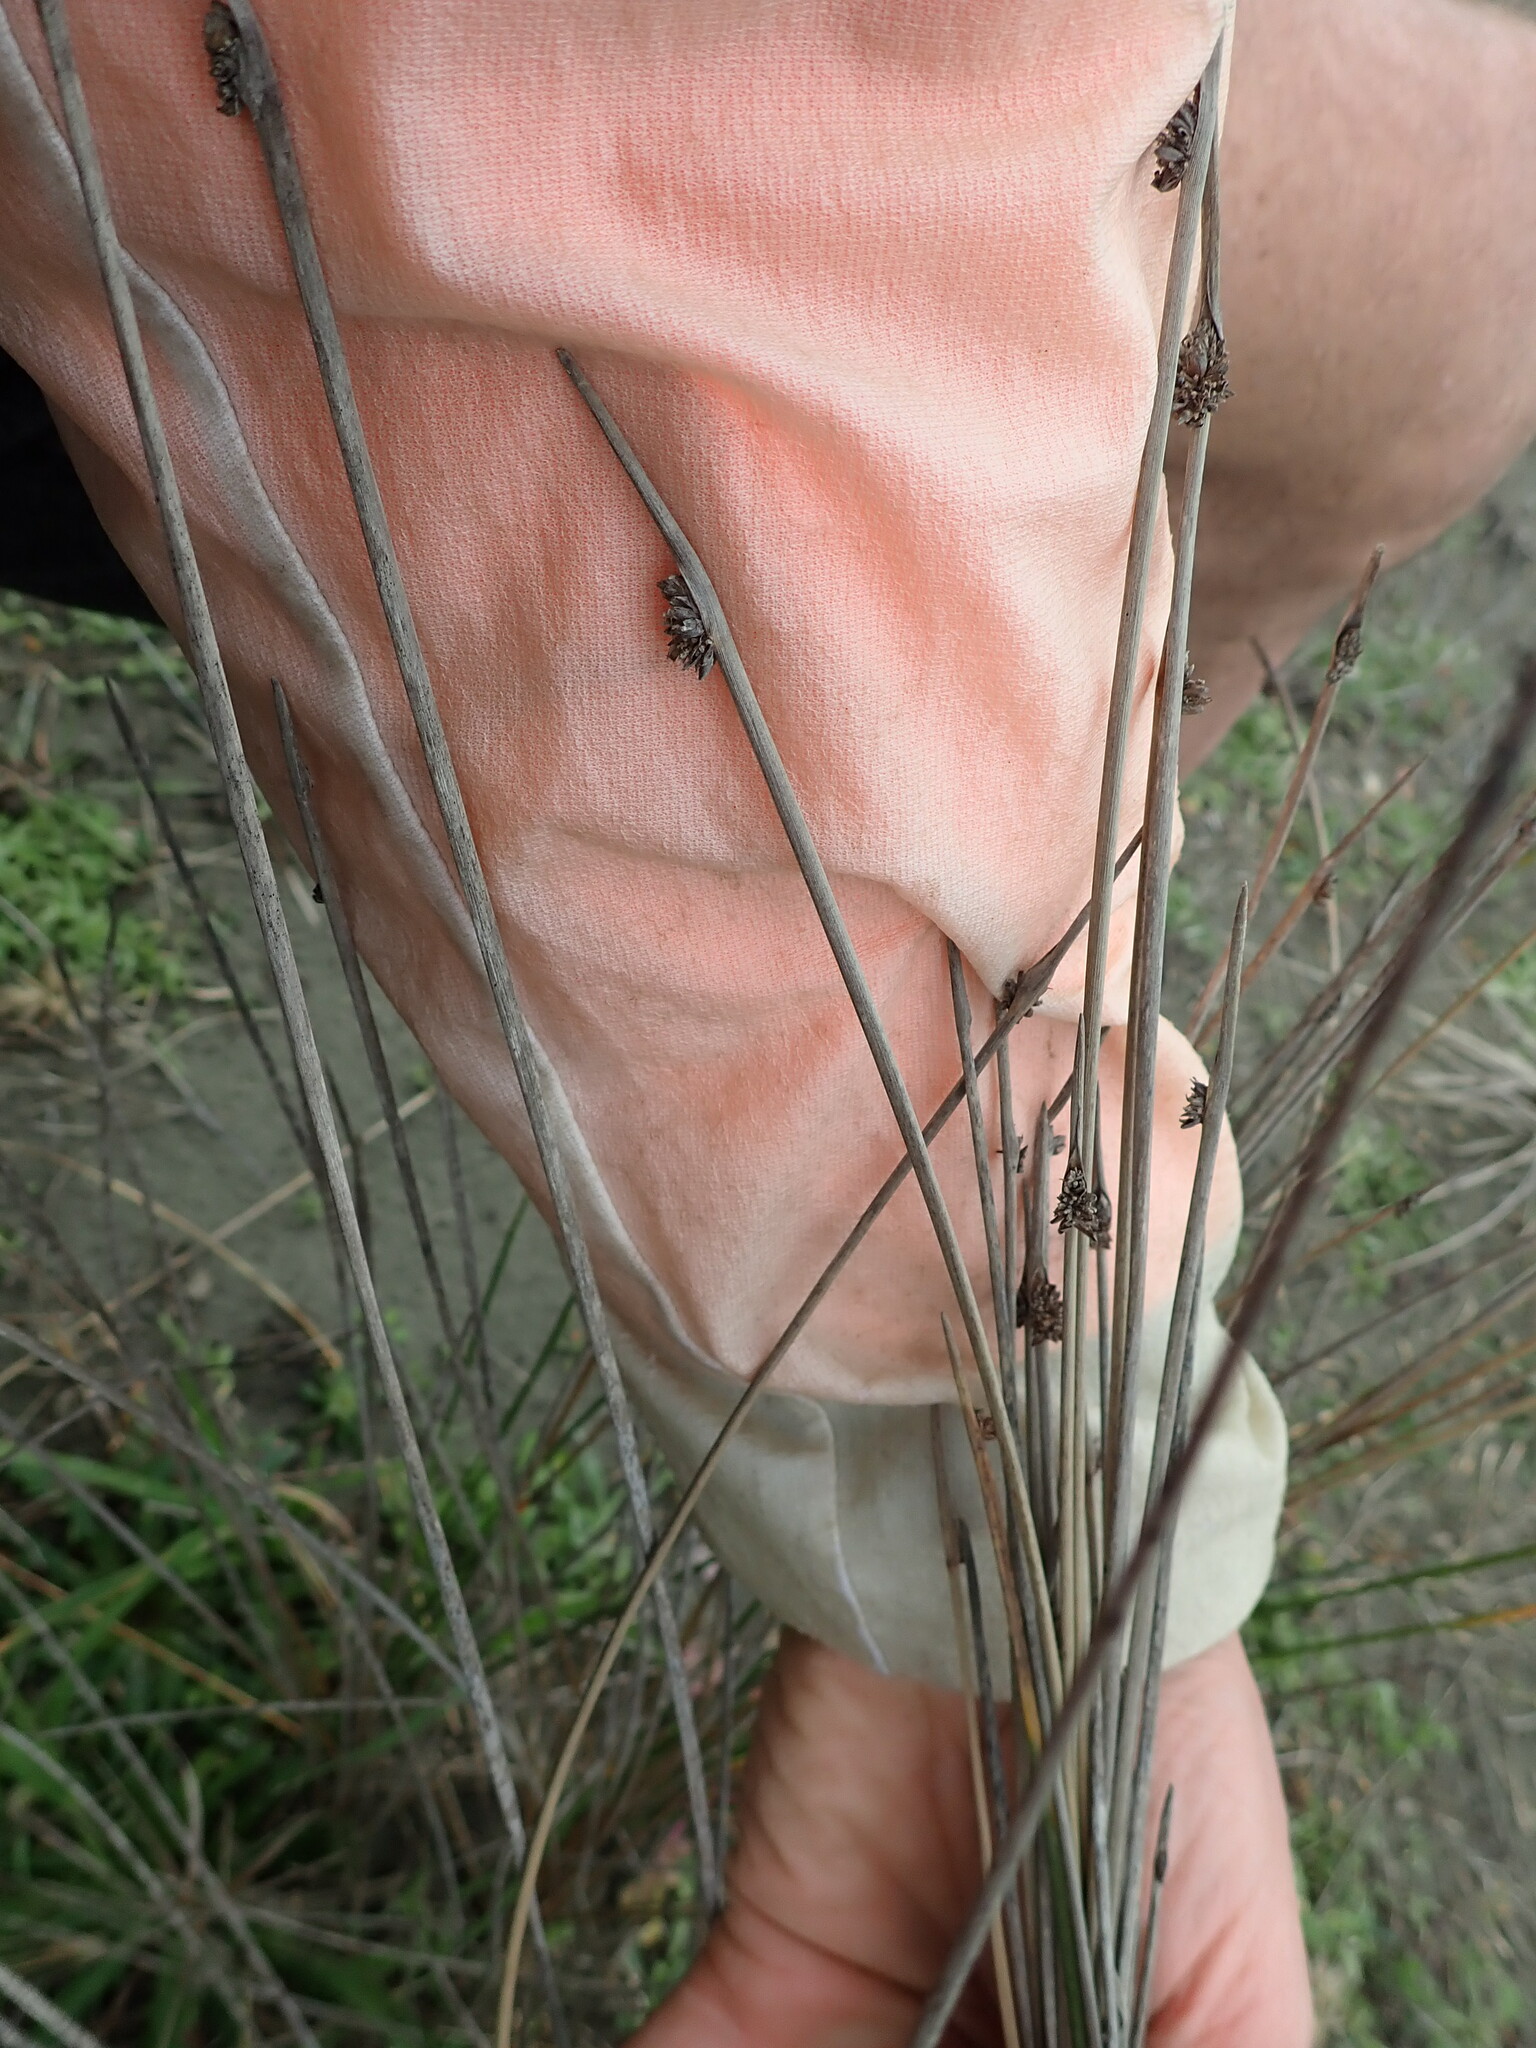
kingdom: Plantae
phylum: Tracheophyta
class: Liliopsida
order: Poales
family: Cyperaceae
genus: Ficinia
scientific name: Ficinia nodosa
